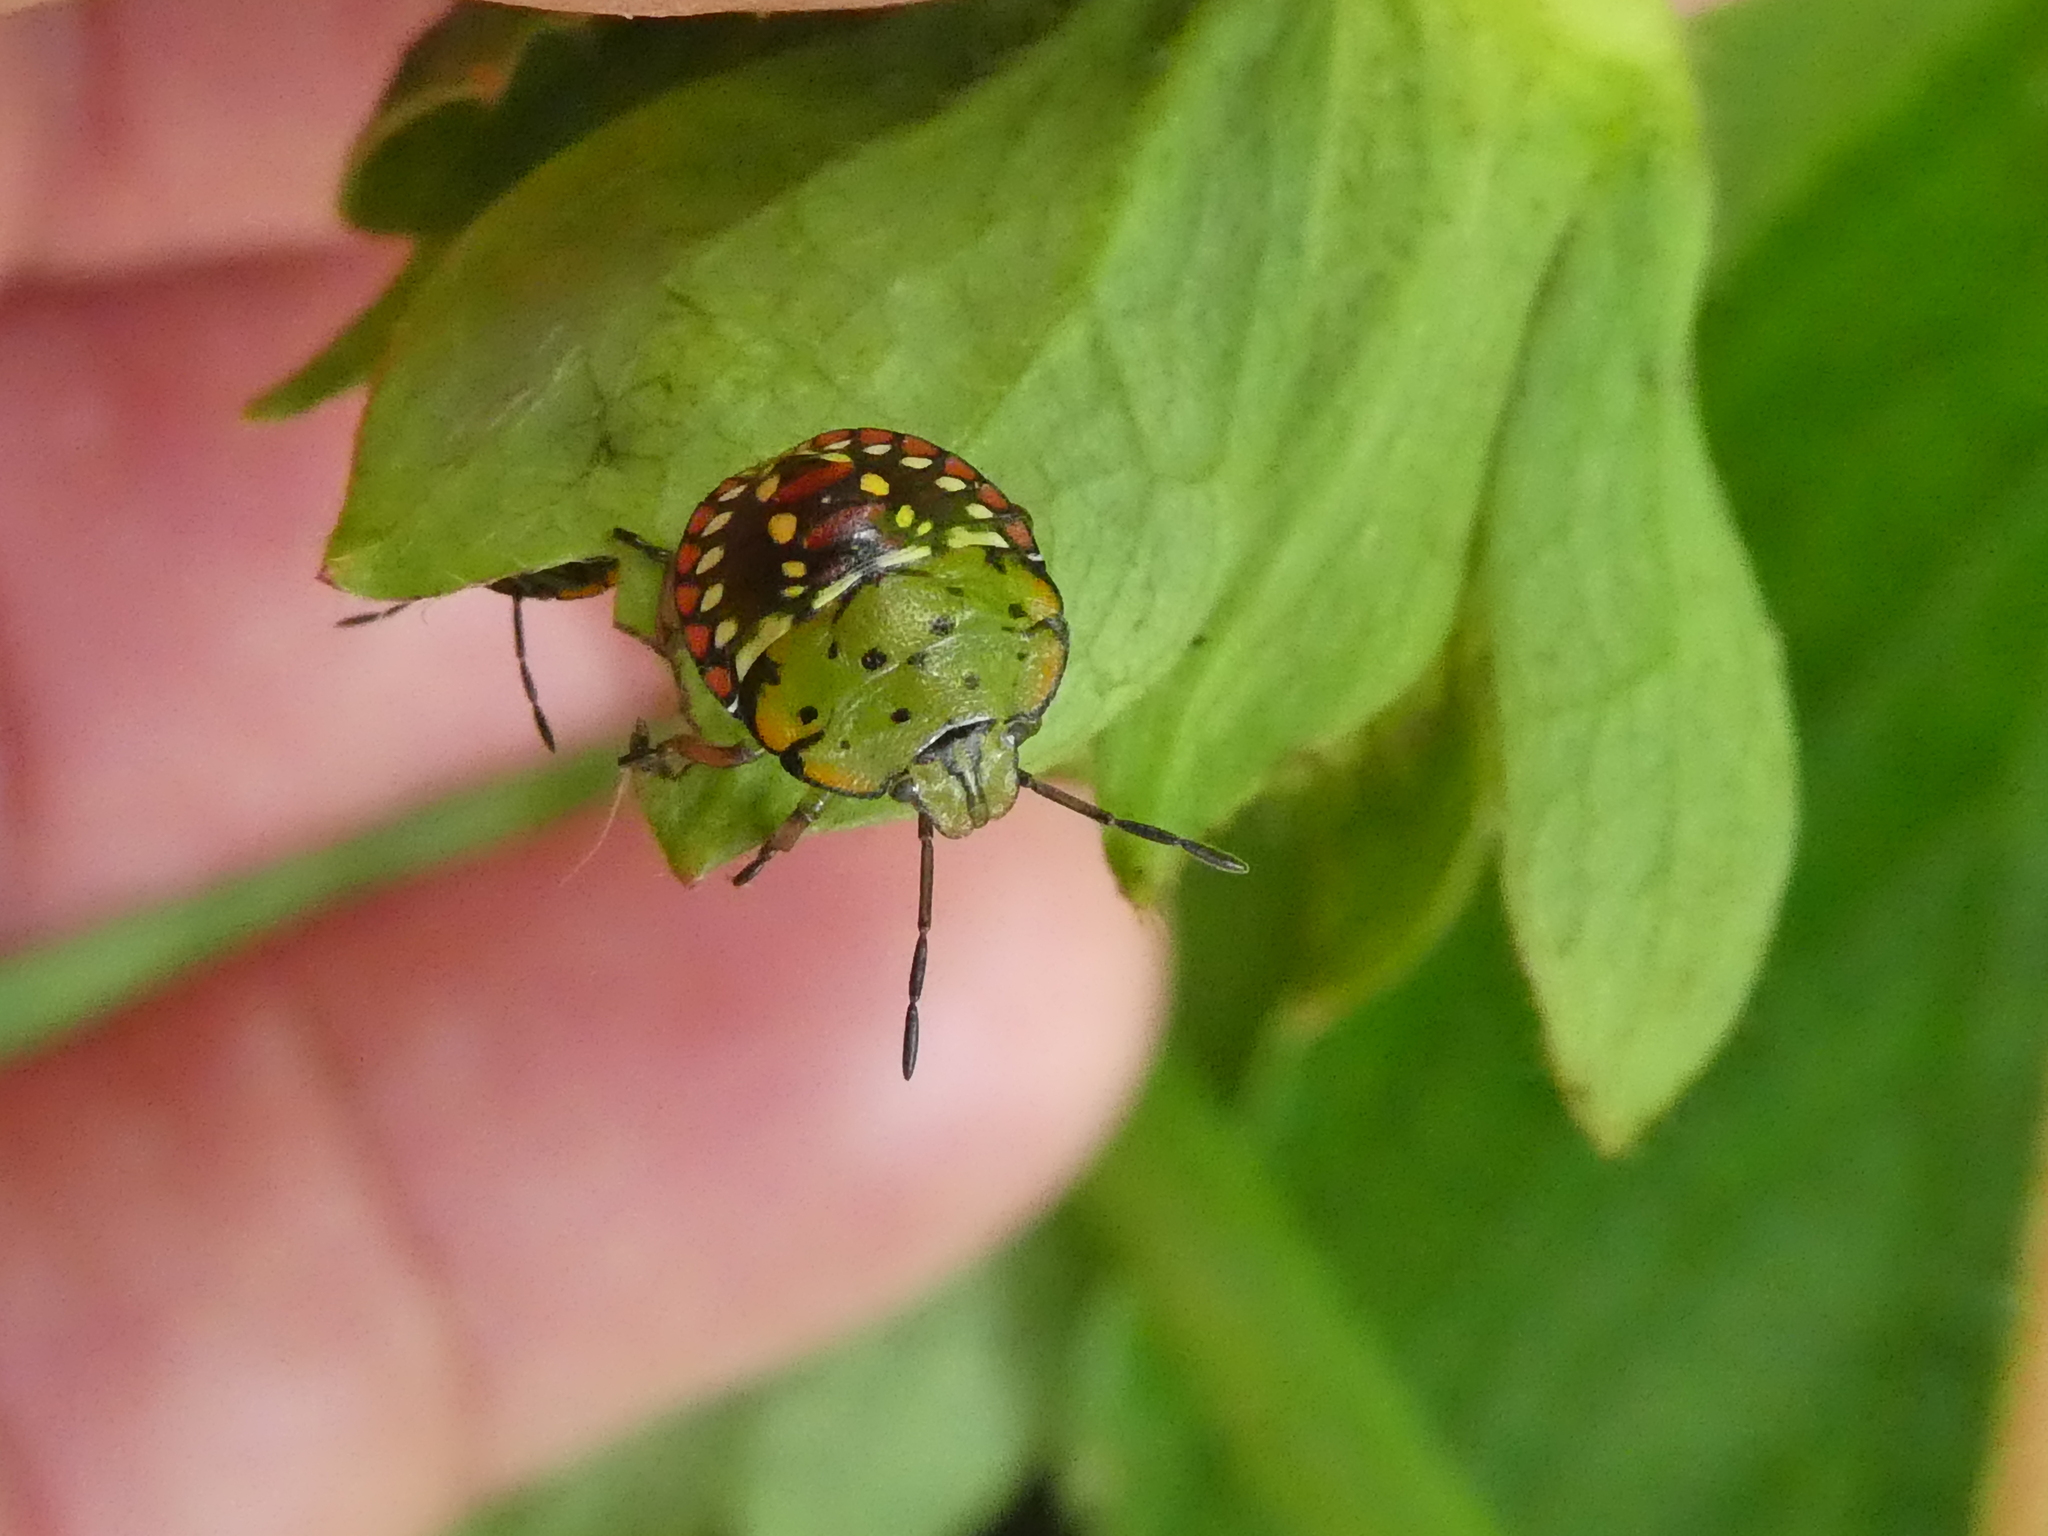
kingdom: Animalia
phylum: Arthropoda
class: Insecta
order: Hemiptera
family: Pentatomidae
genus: Nezara
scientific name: Nezara viridula
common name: Southern green stink bug
